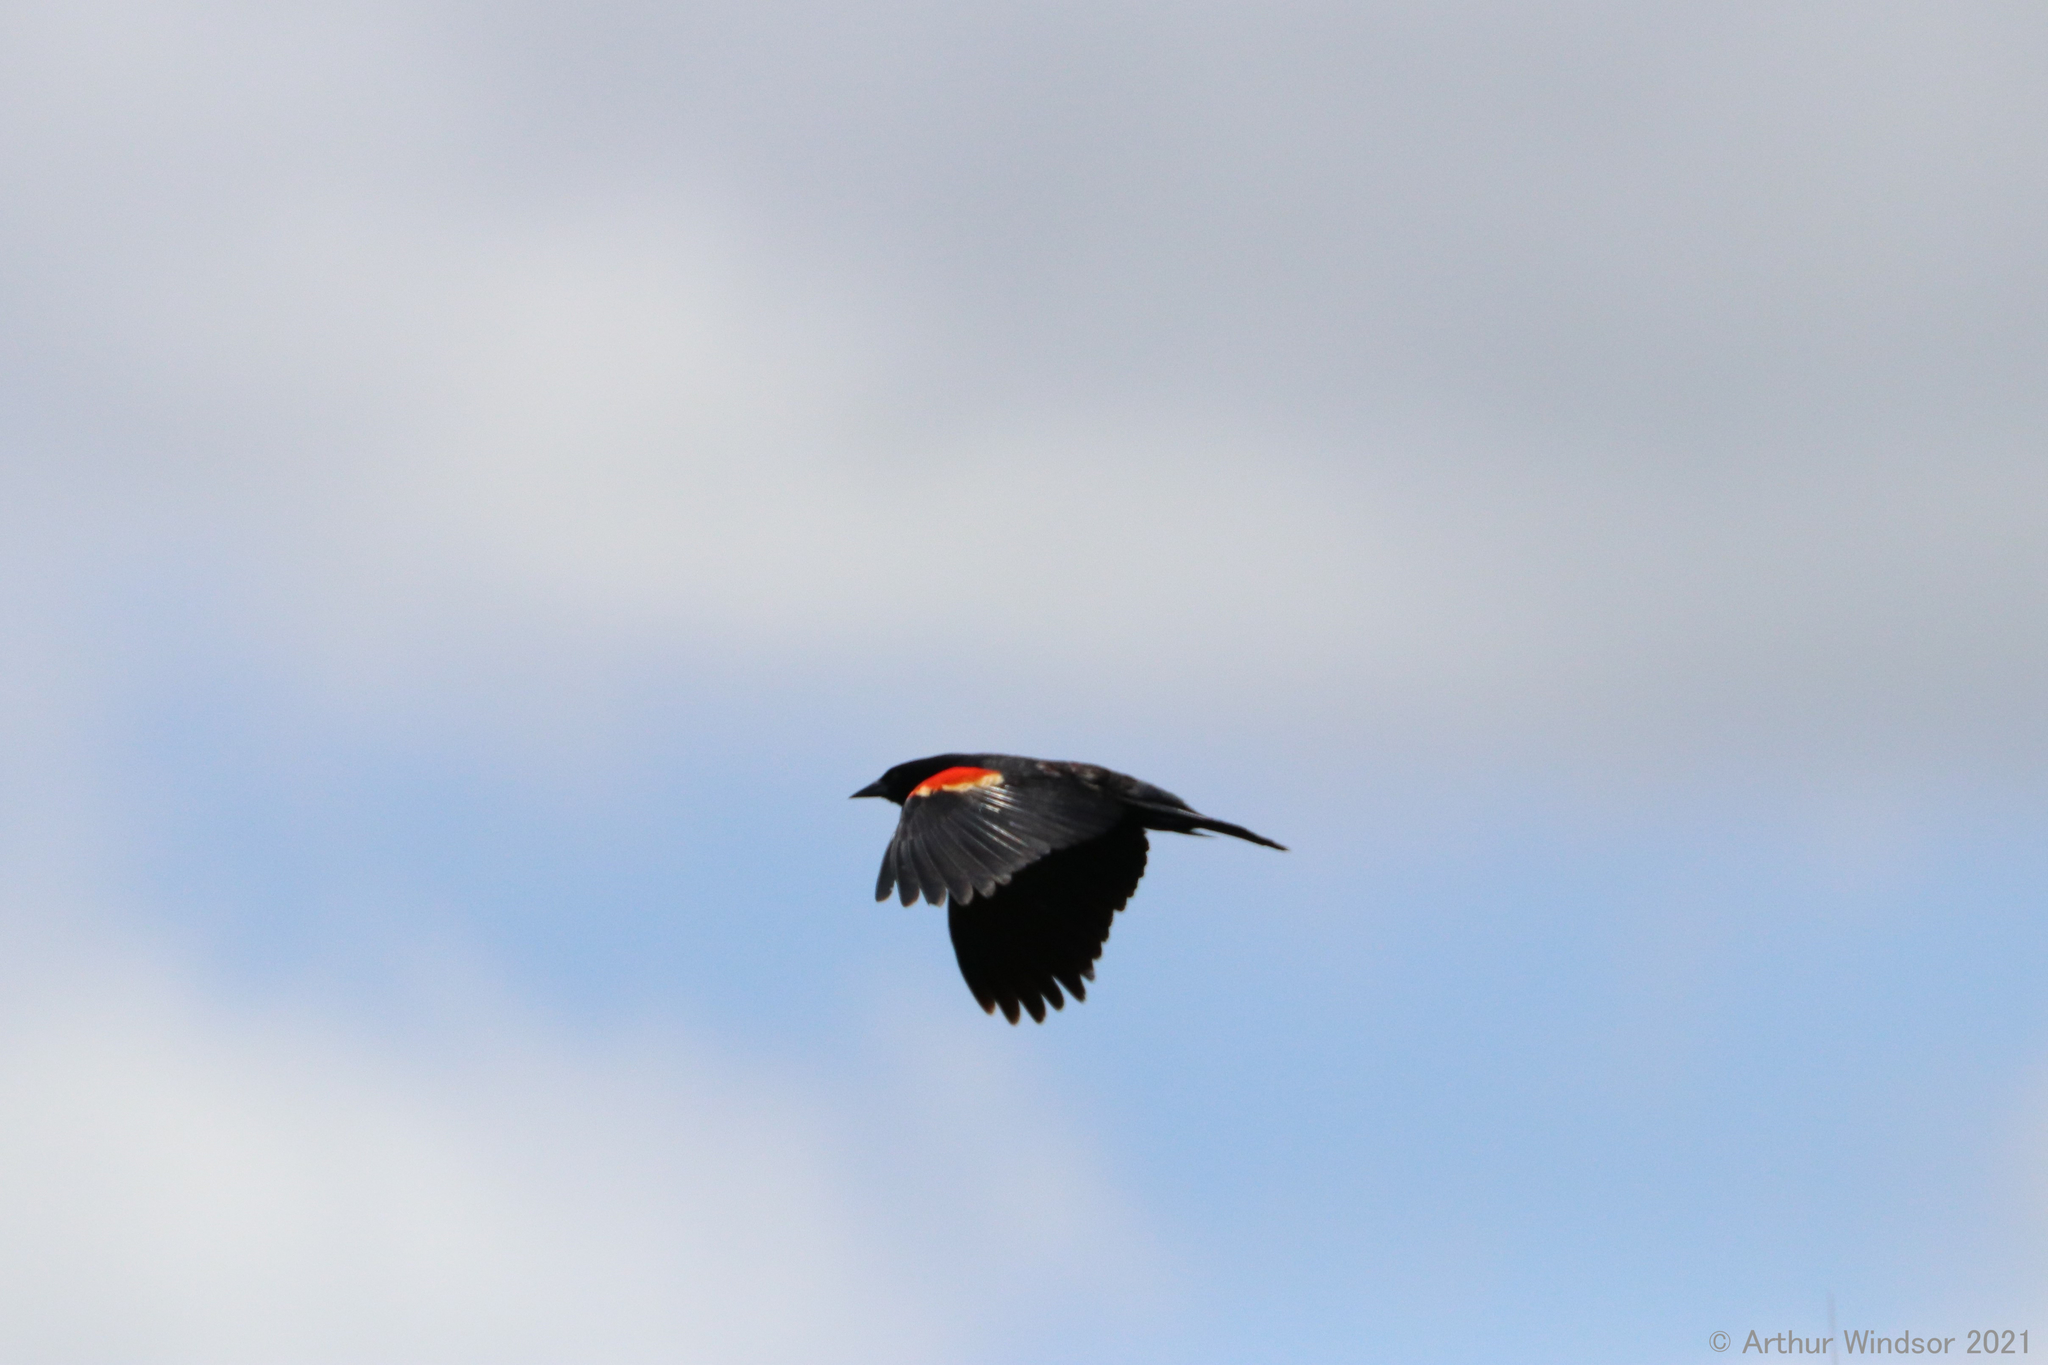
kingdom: Animalia
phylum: Chordata
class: Aves
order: Passeriformes
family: Icteridae
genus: Agelaius
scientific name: Agelaius phoeniceus
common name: Red-winged blackbird
